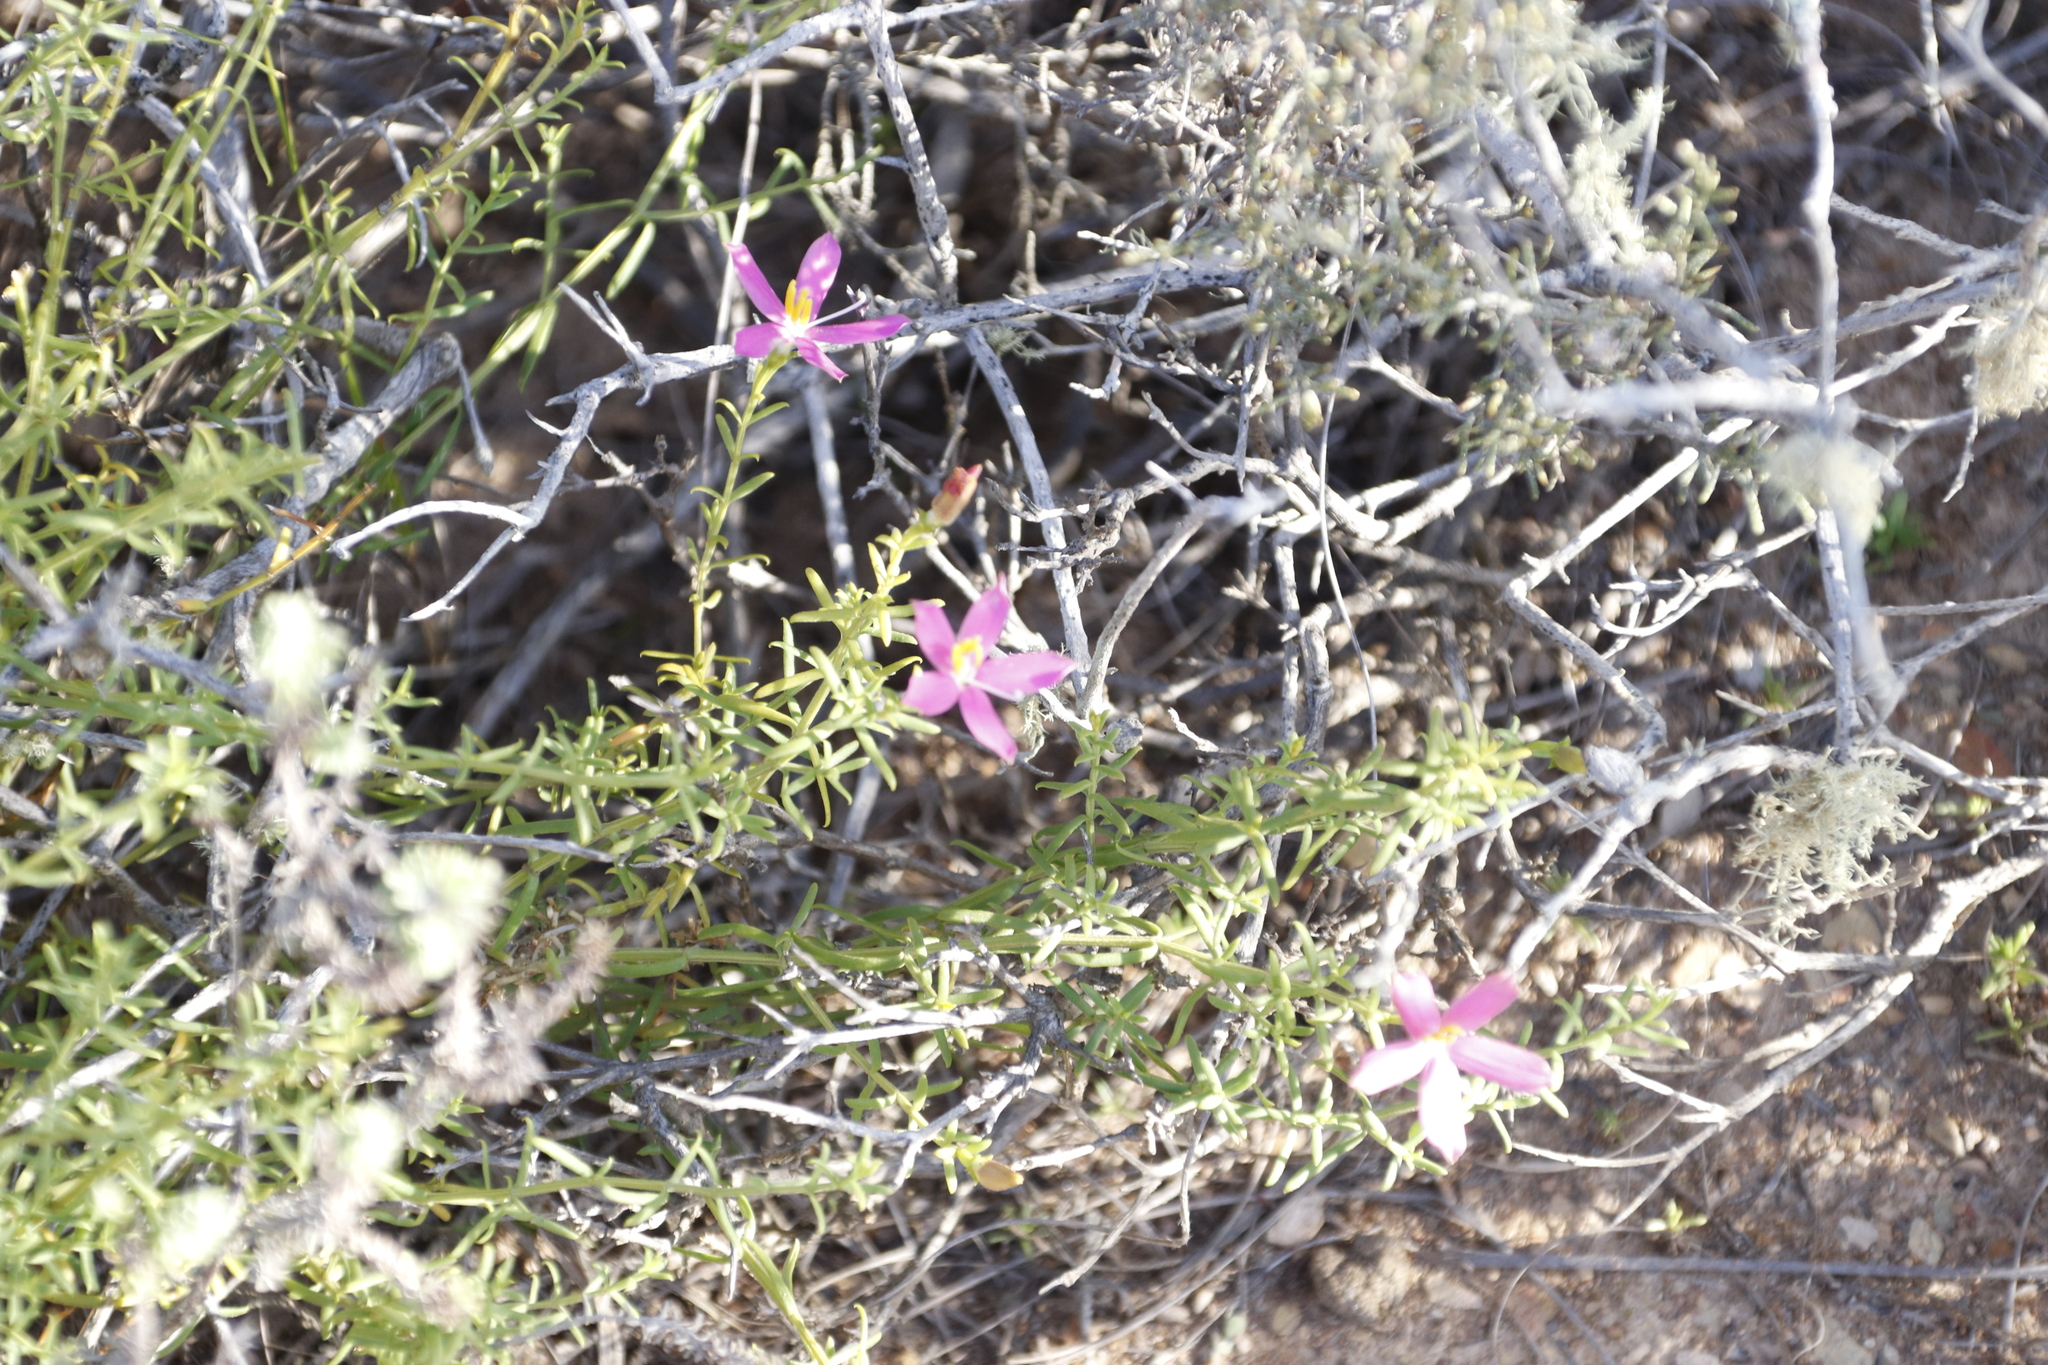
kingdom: Plantae
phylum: Tracheophyta
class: Magnoliopsida
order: Gentianales
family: Gentianaceae
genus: Chironia
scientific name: Chironia baccifera
